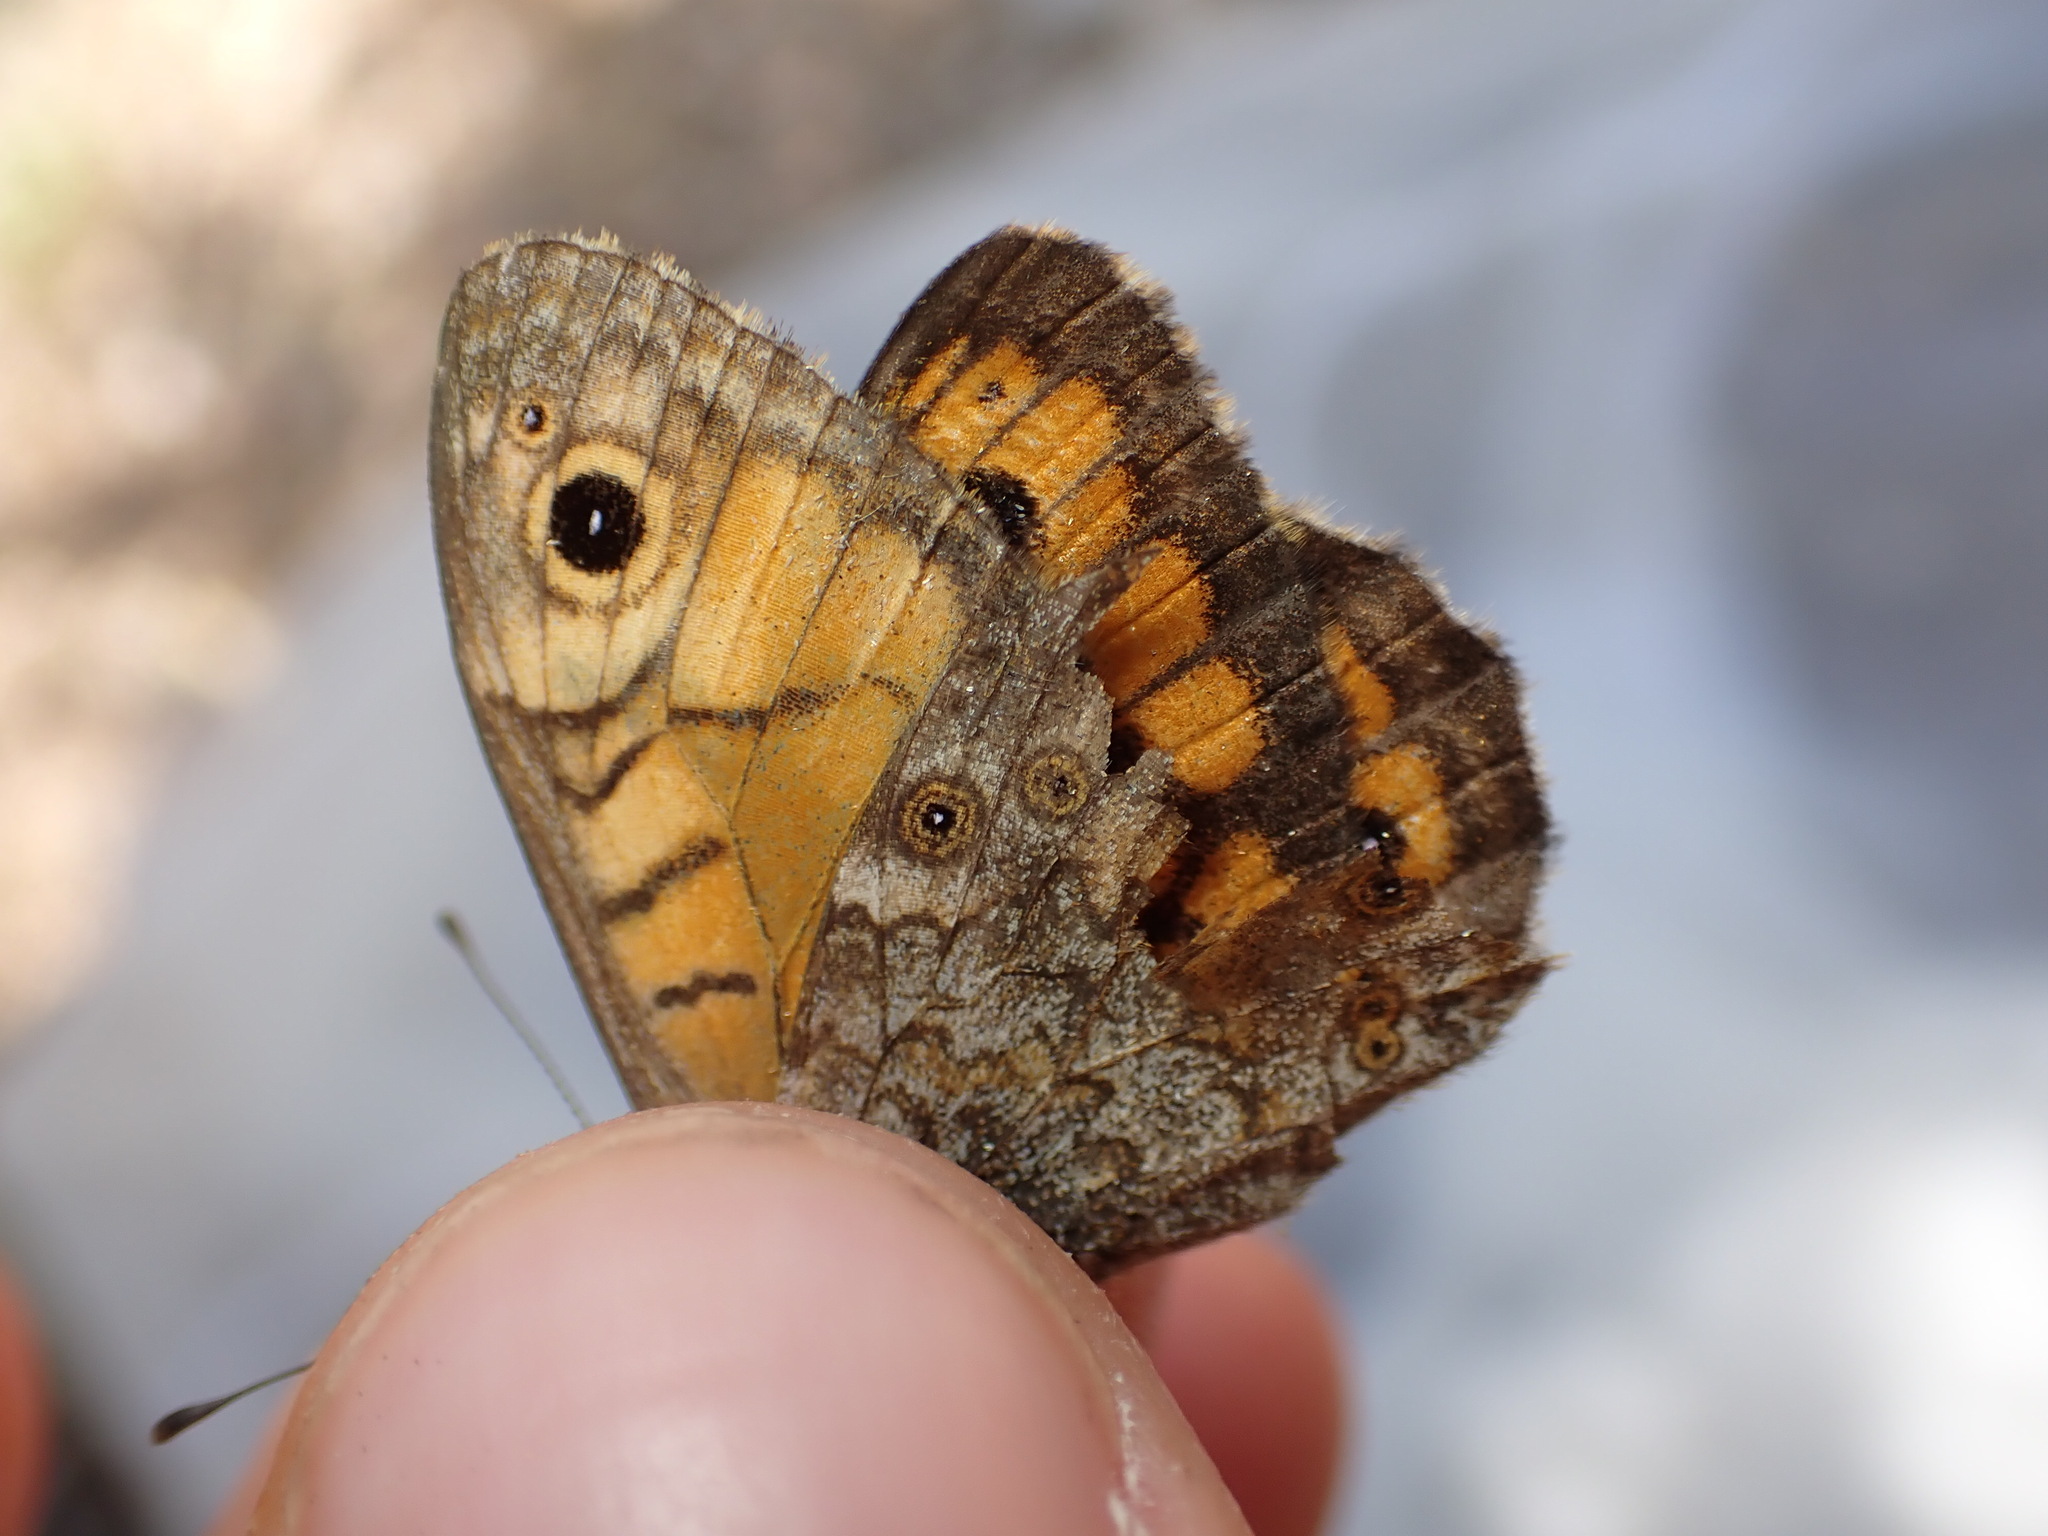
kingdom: Animalia
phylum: Arthropoda
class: Insecta
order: Lepidoptera
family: Nymphalidae
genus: Pararge
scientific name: Pararge Lasiommata megera
